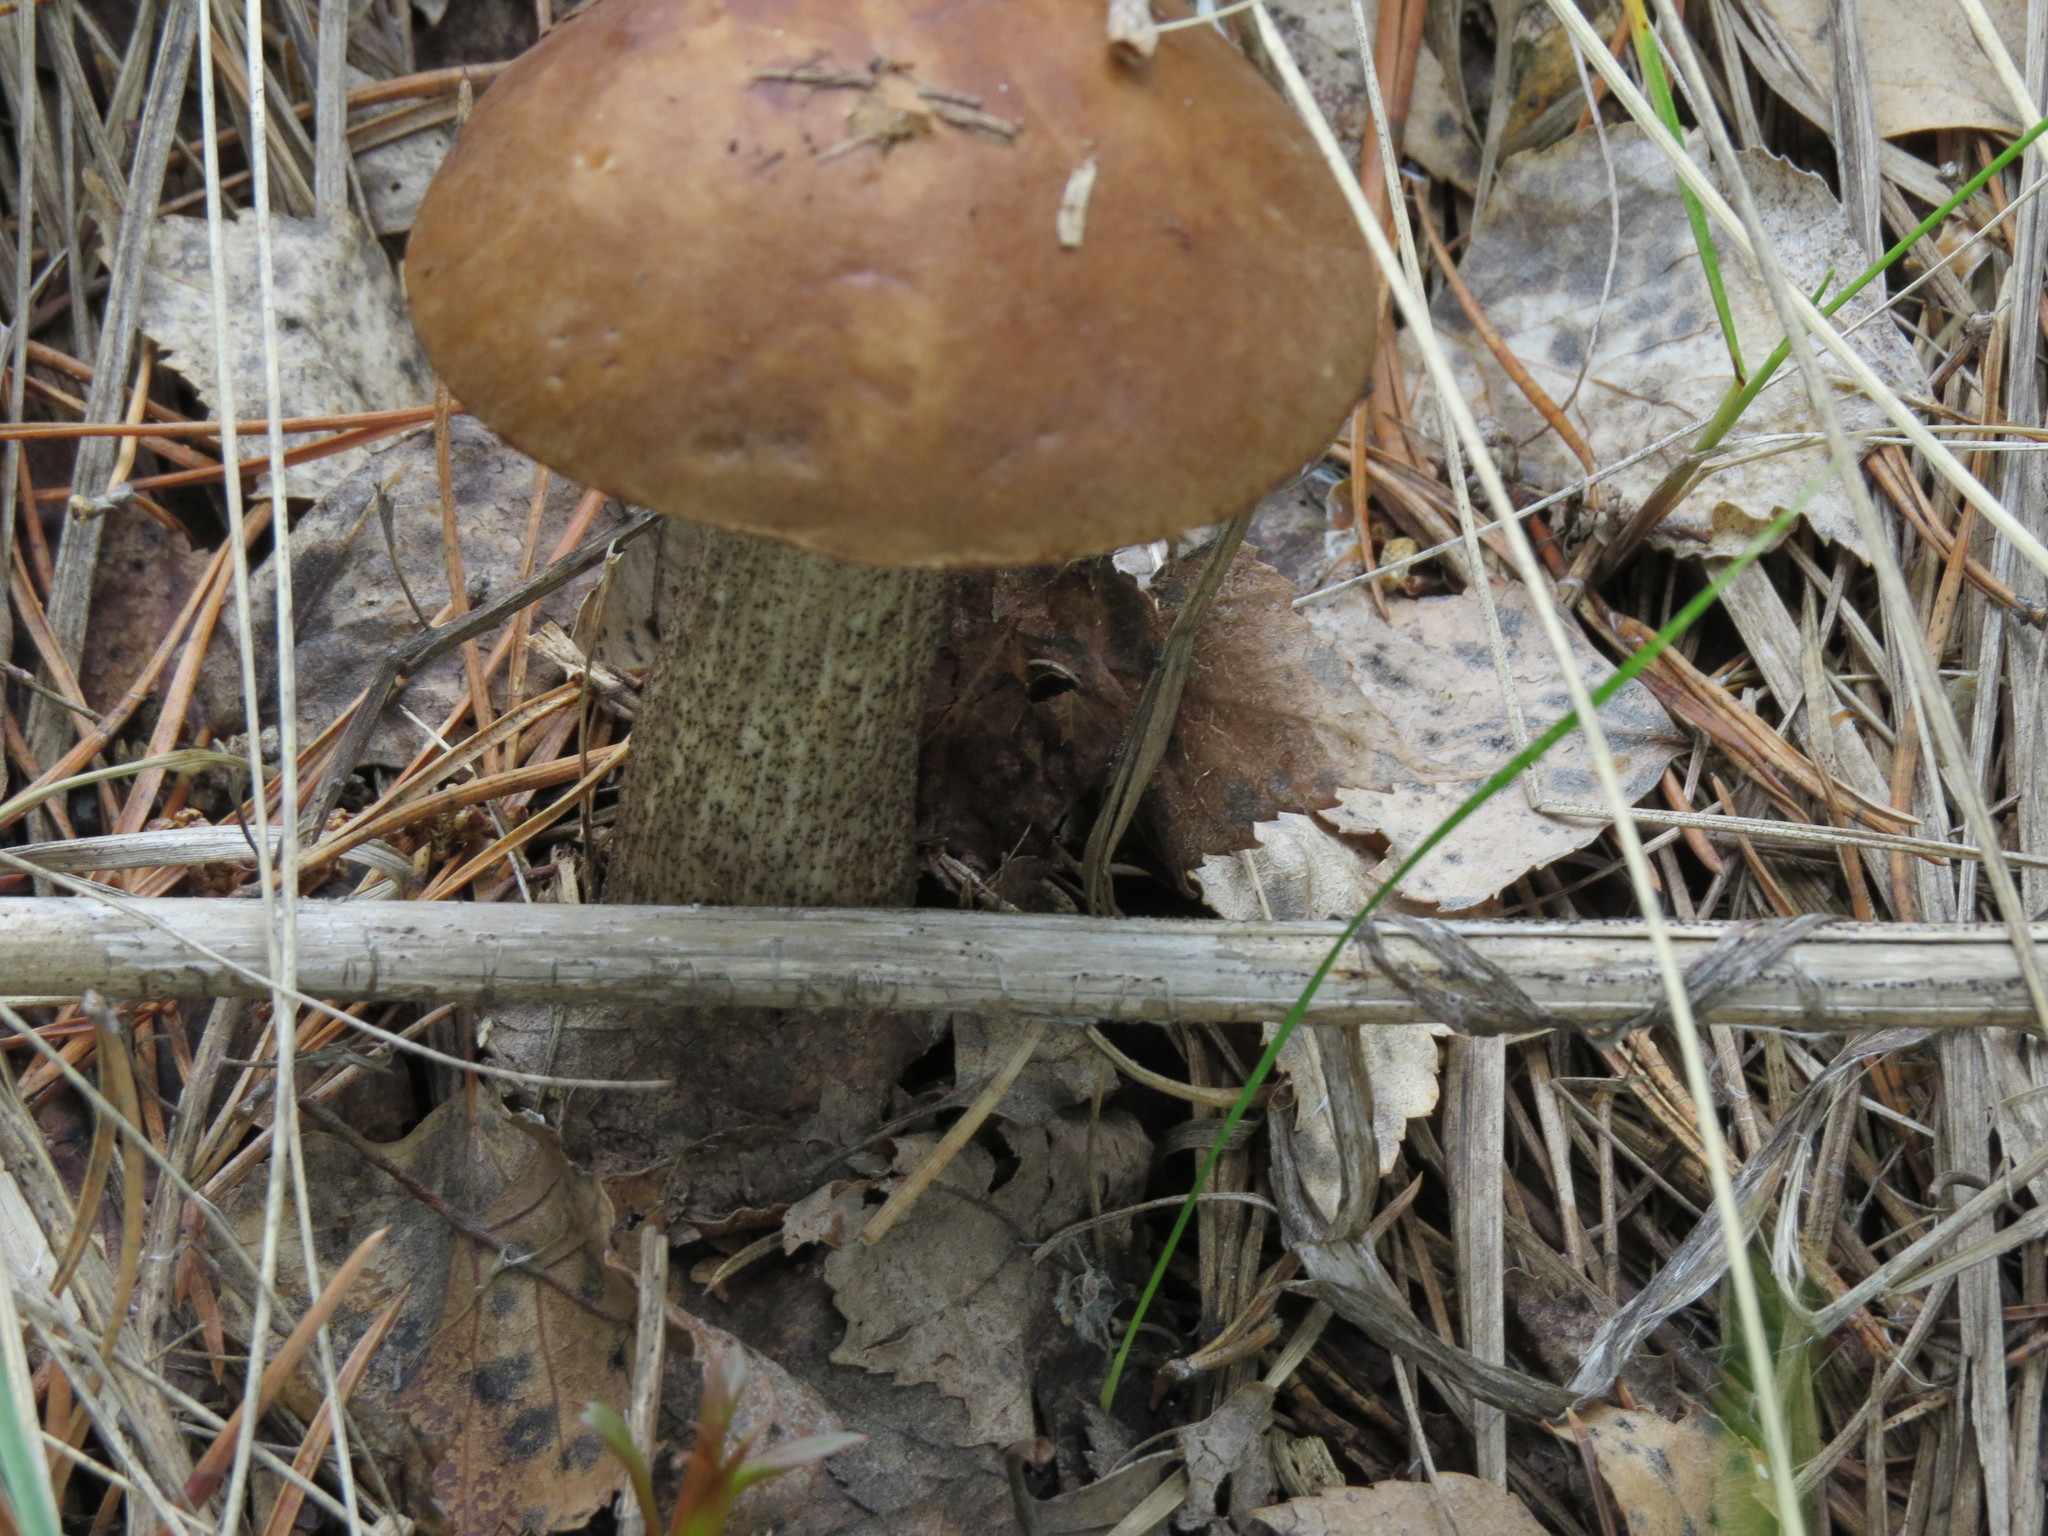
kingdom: Fungi
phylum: Basidiomycota
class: Agaricomycetes
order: Boletales
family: Boletaceae
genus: Leccinum
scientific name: Leccinum scabrum
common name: Blushing bolete
